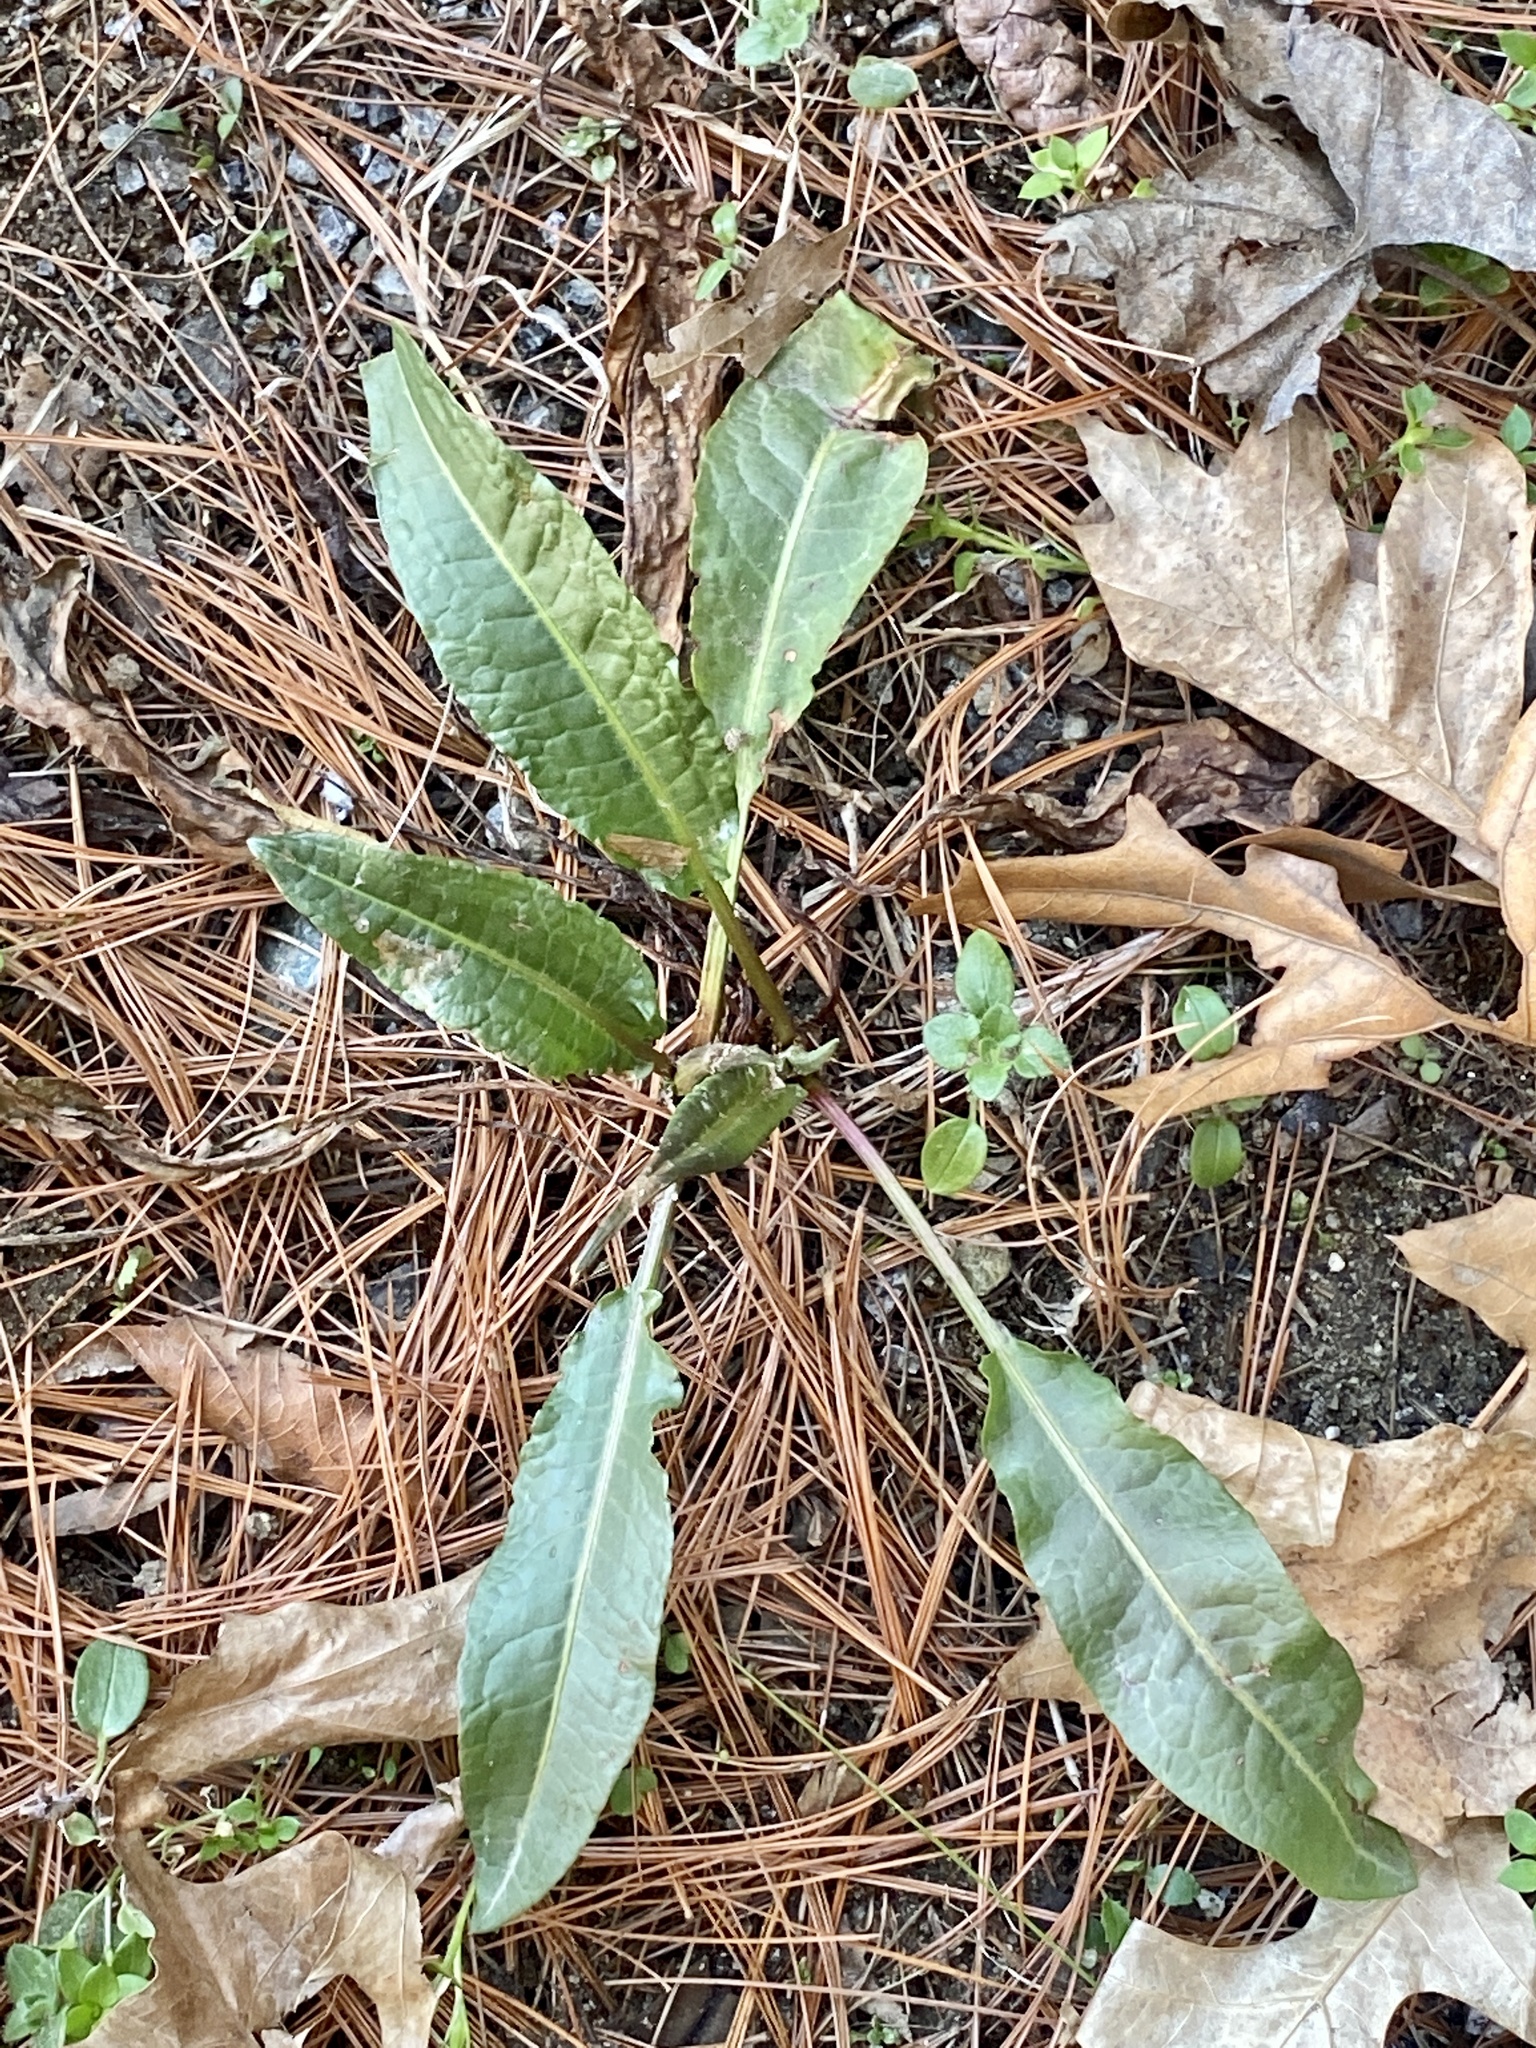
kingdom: Plantae
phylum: Tracheophyta
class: Magnoliopsida
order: Caryophyllales
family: Polygonaceae
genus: Rumex
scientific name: Rumex crispus
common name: Curled dock
